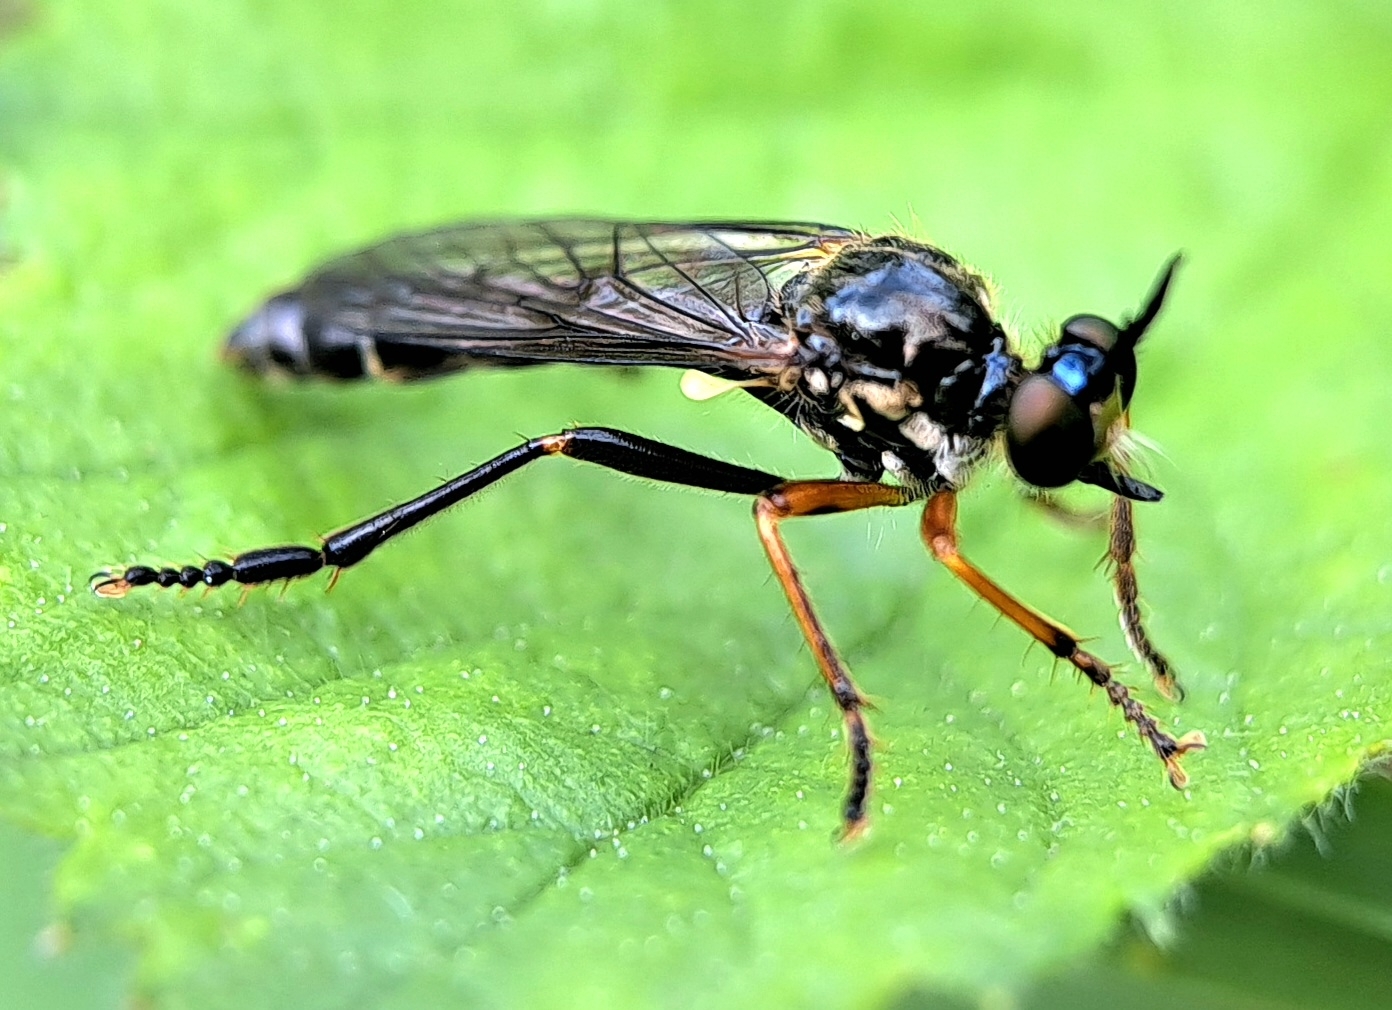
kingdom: Animalia
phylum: Arthropoda
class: Insecta
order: Diptera
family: Asilidae
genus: Dioctria
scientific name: Dioctria rufipes
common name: Common red-legged robberfly
